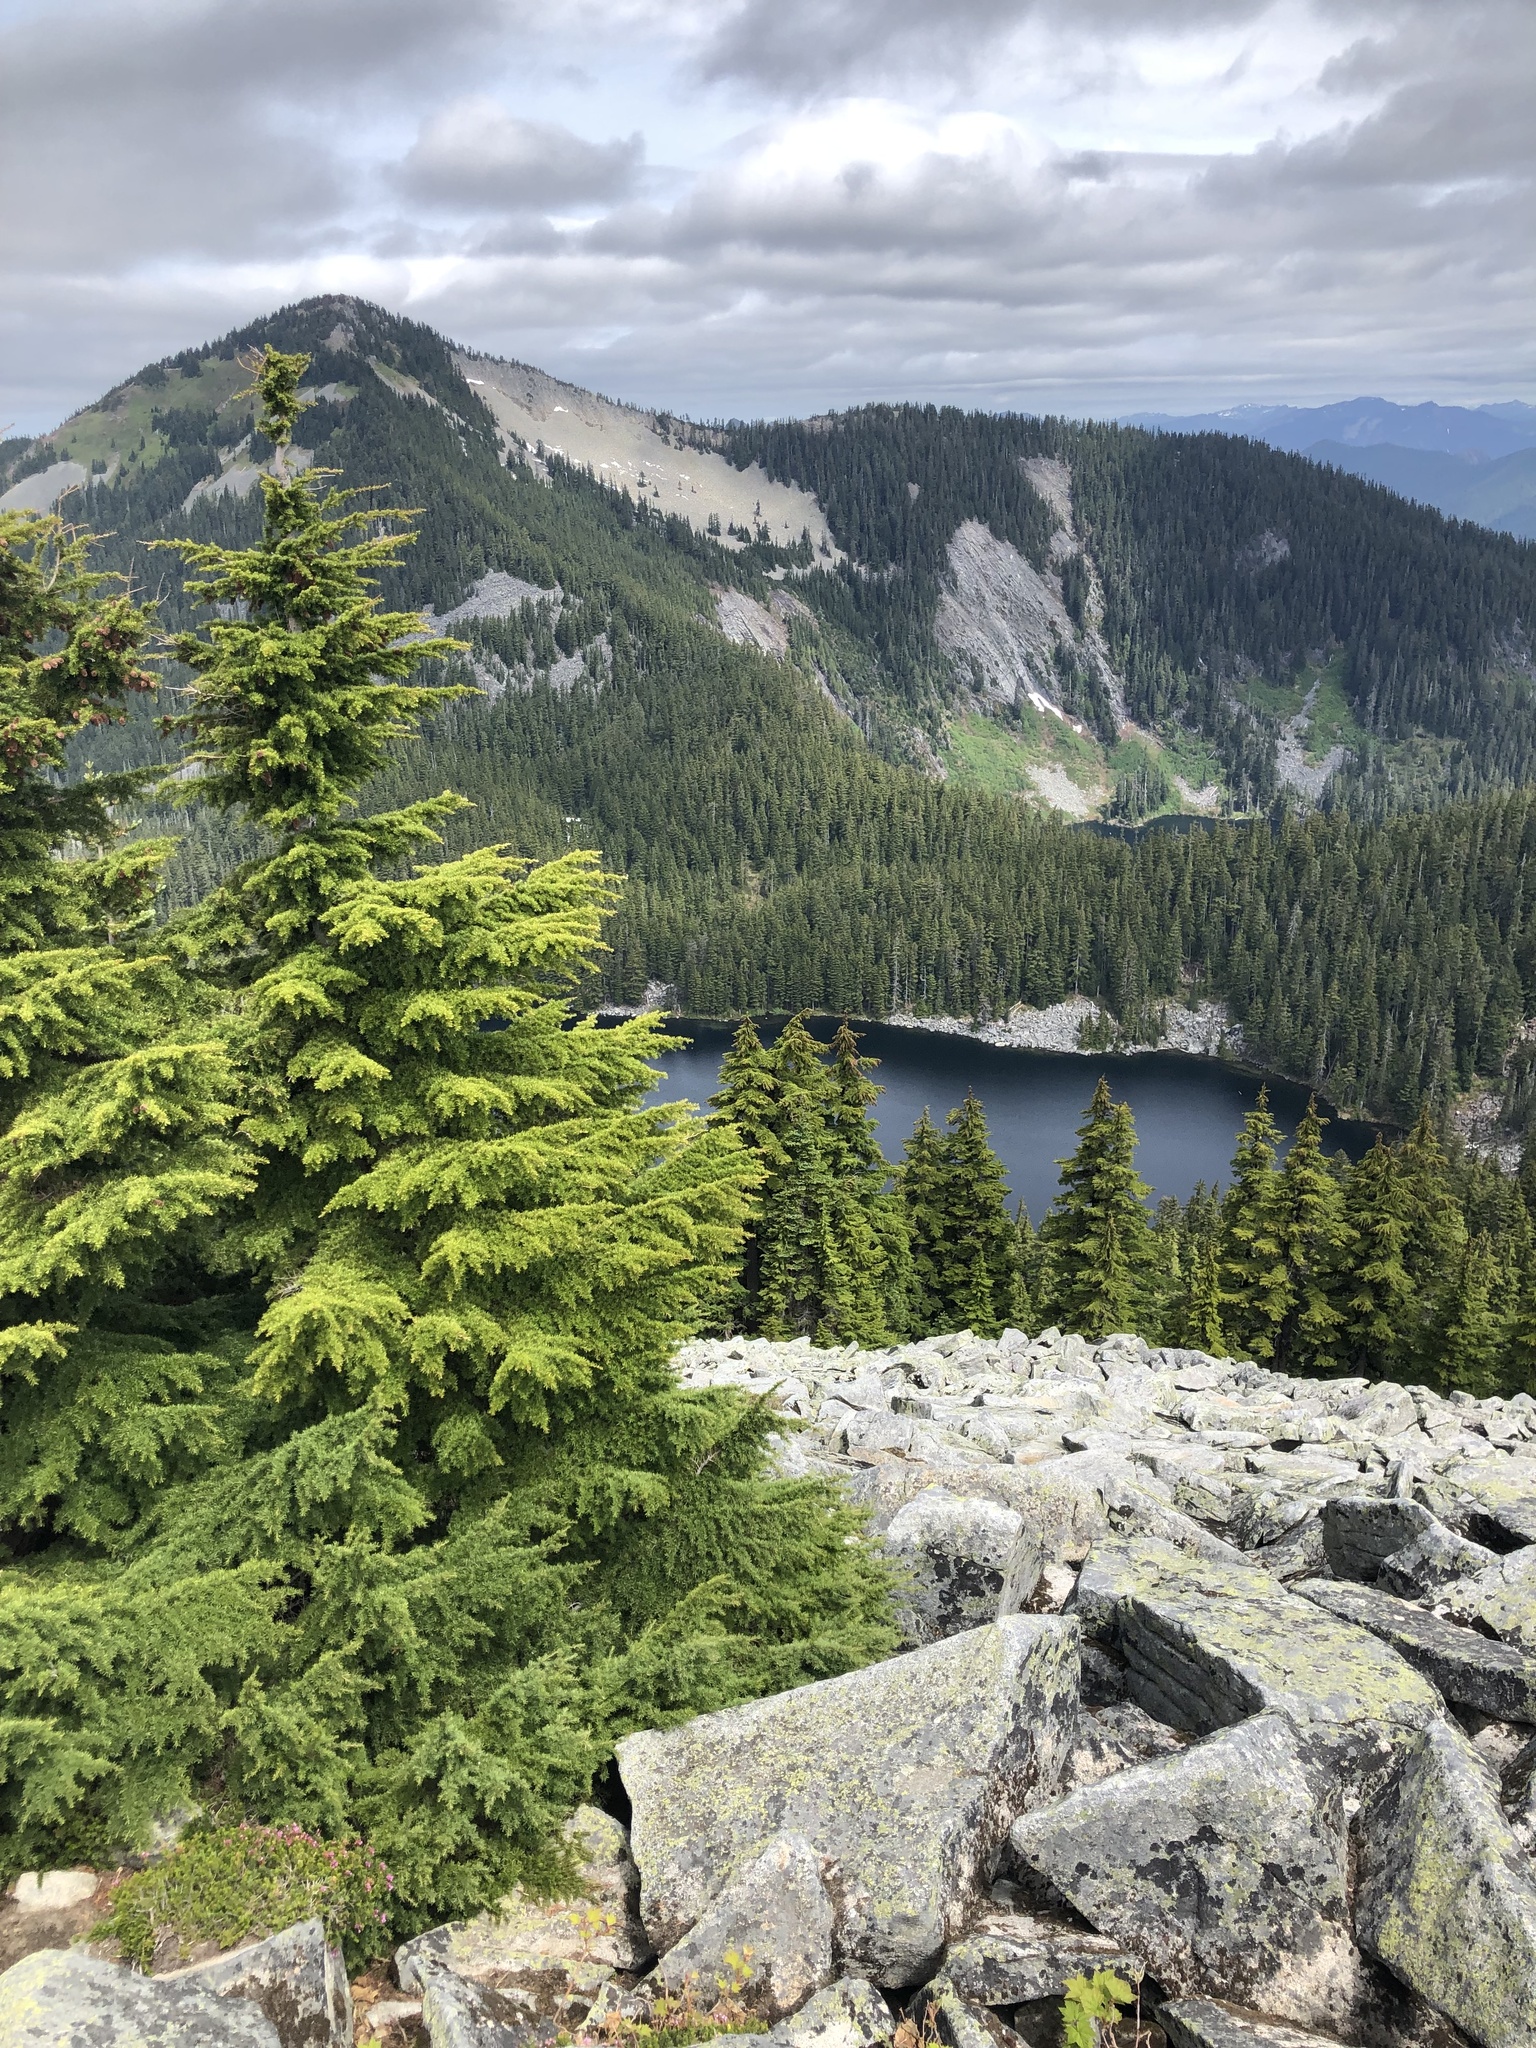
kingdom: Plantae
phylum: Tracheophyta
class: Pinopsida
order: Pinales
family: Pinaceae
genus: Tsuga
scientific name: Tsuga mertensiana
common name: Mountain hemlock
